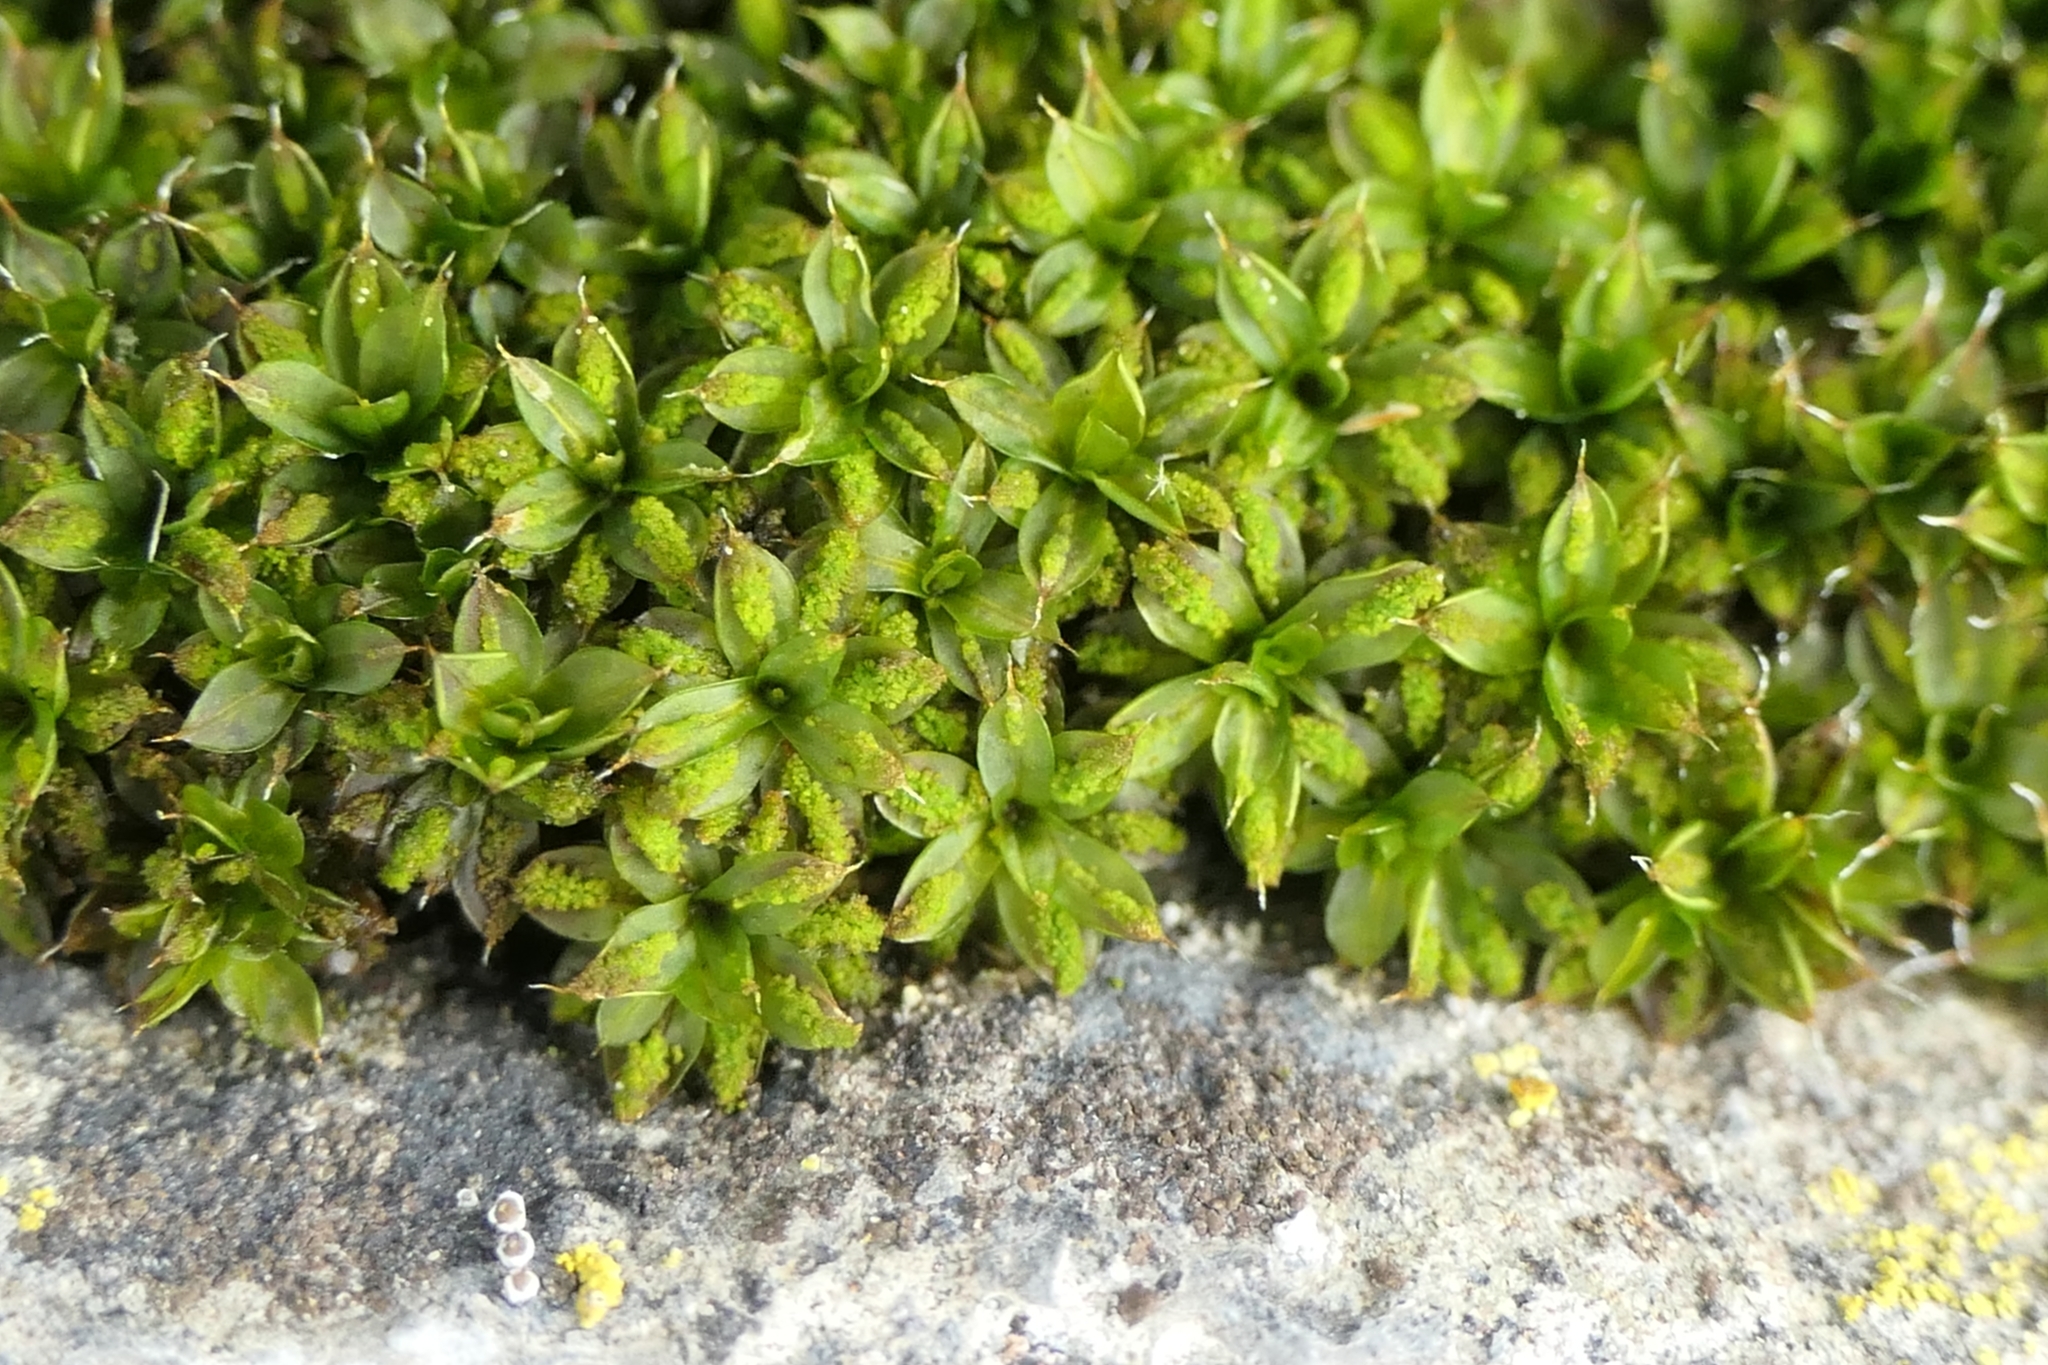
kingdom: Plantae
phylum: Bryophyta
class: Bryopsida
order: Pottiales
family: Pottiaceae
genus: Syntrichia
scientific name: Syntrichia papillosa
